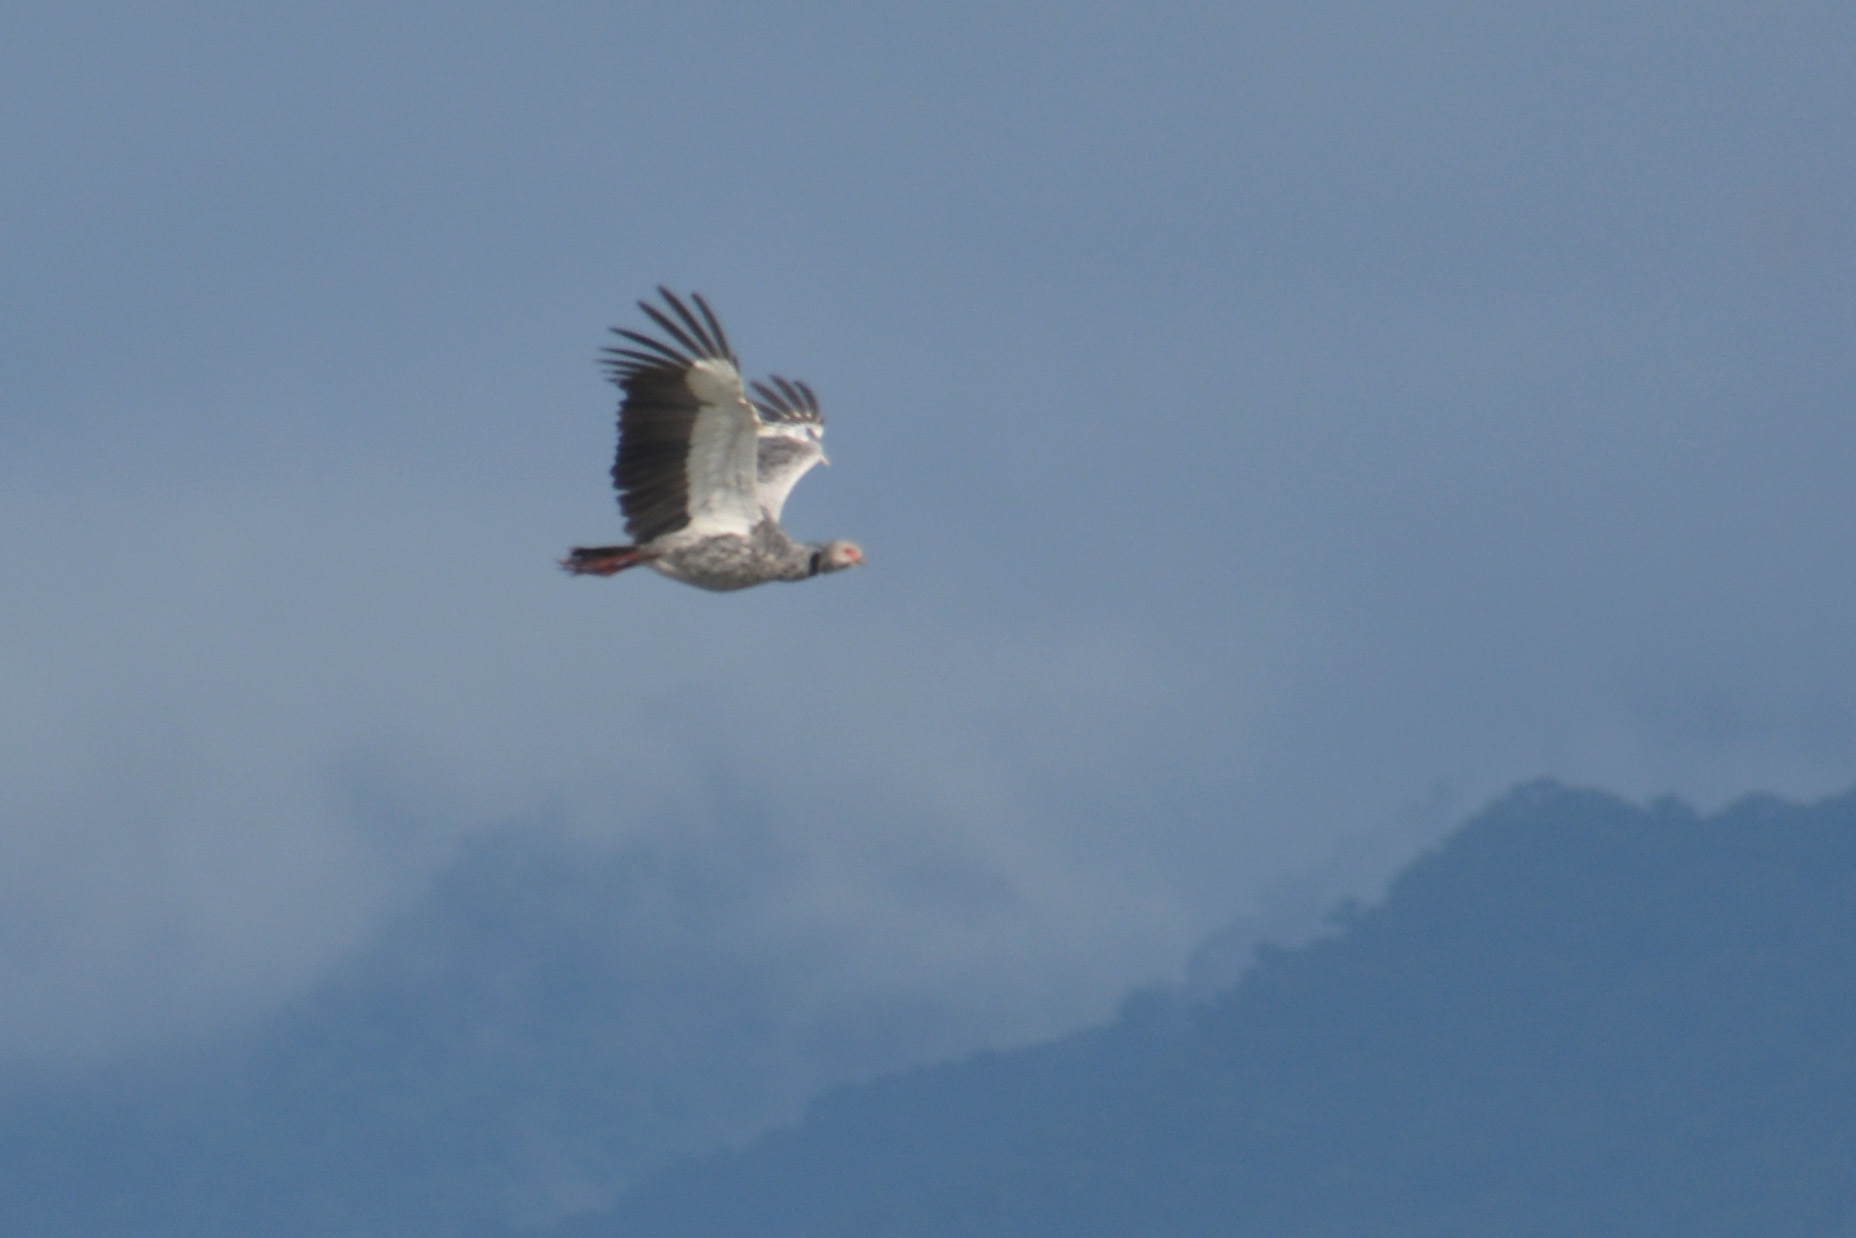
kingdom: Animalia
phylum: Chordata
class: Aves
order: Anseriformes
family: Anhimidae
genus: Chauna
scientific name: Chauna torquata
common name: Southern screamer
